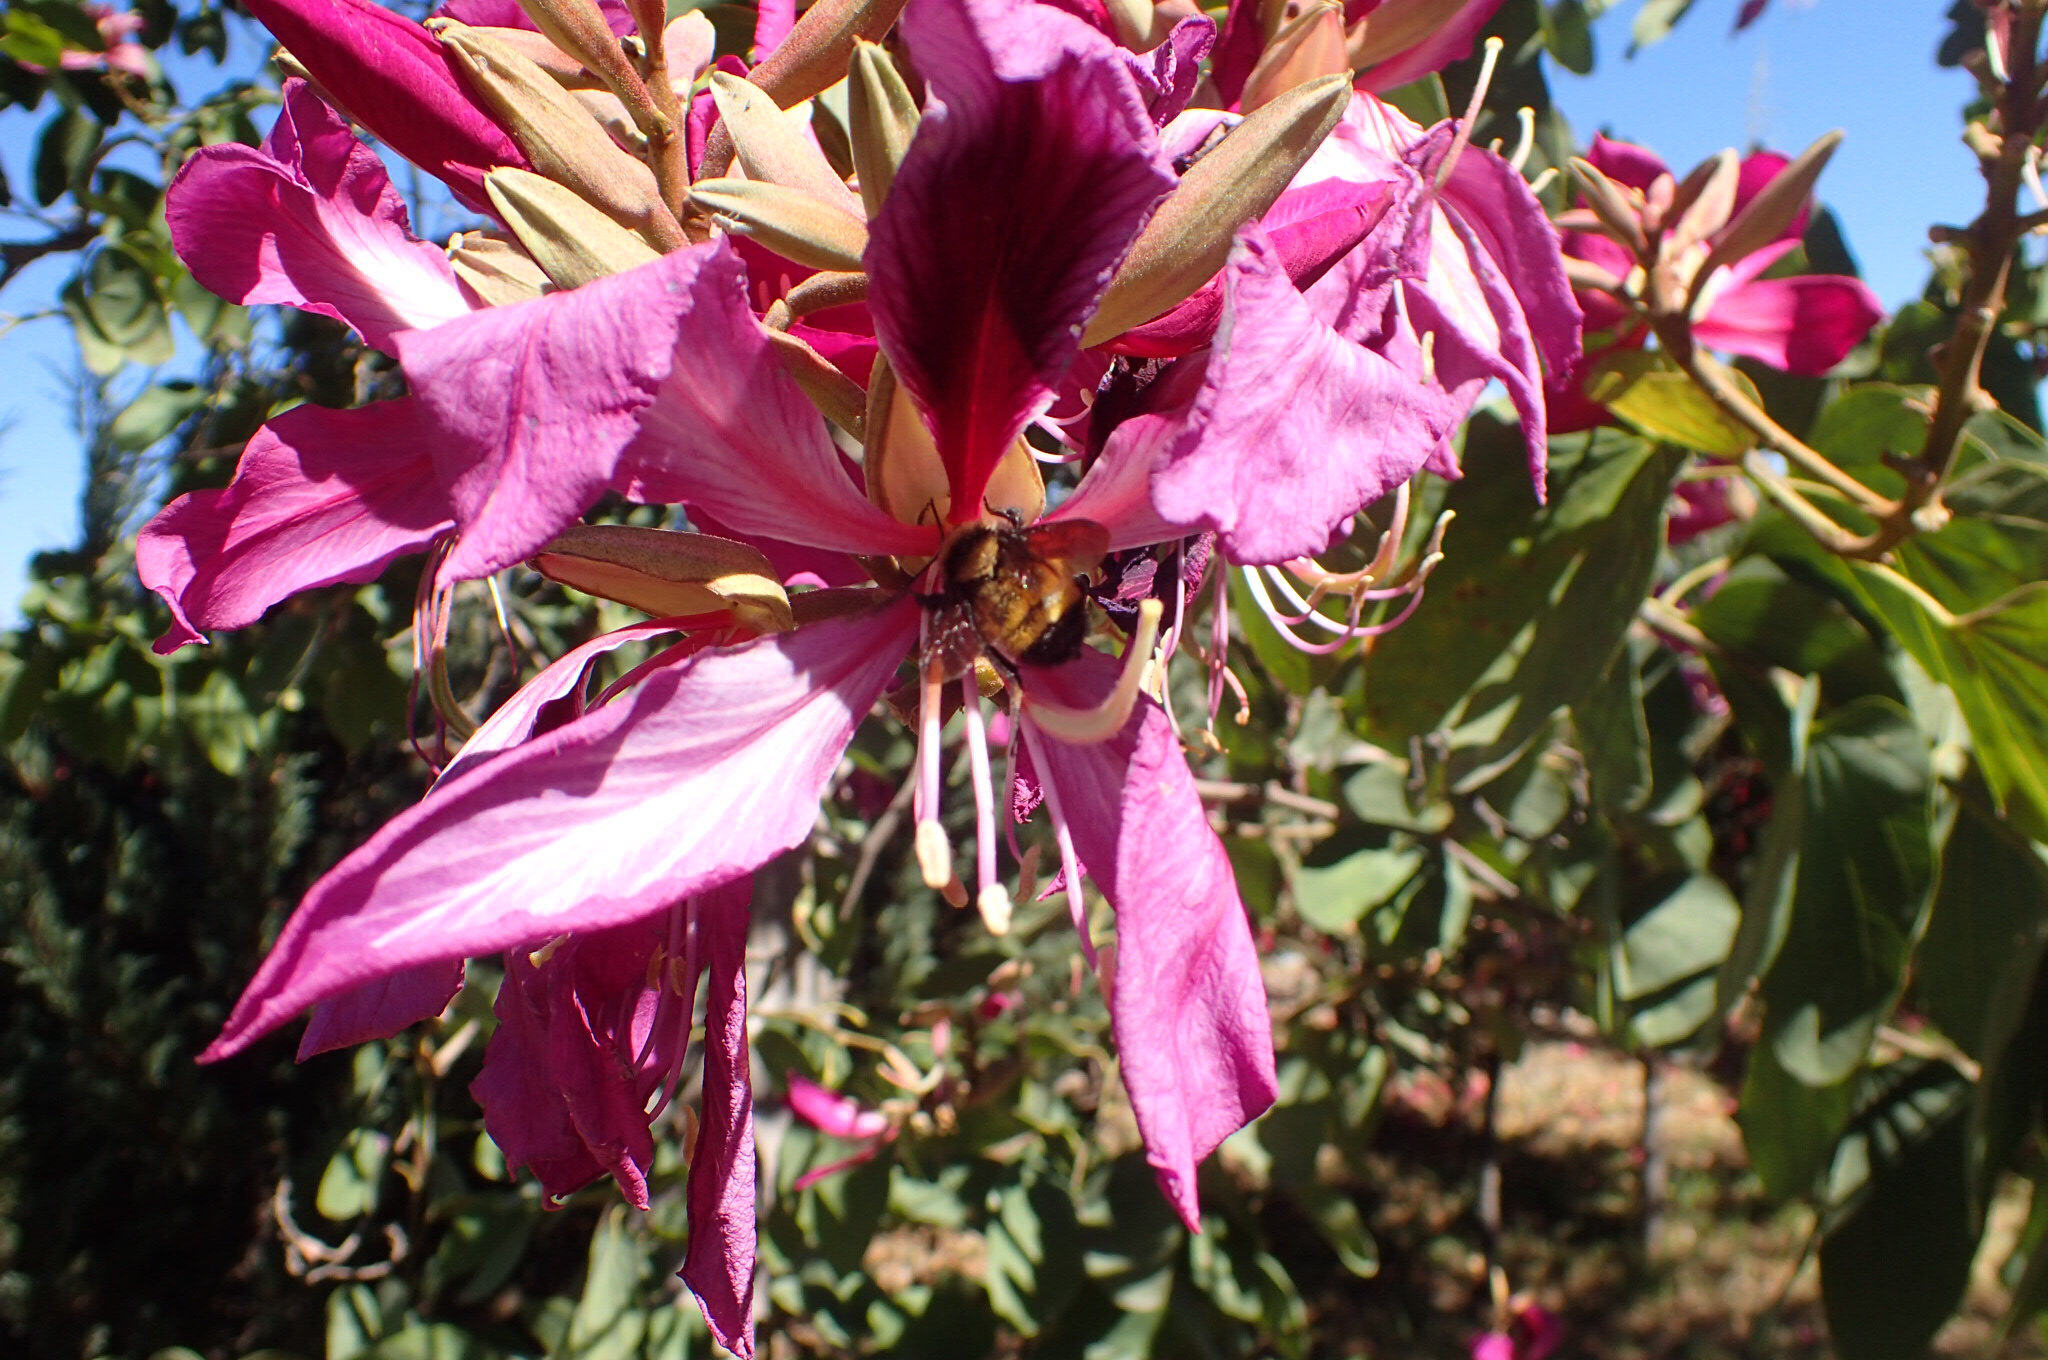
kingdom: Animalia
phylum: Arthropoda
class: Insecta
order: Hymenoptera
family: Apidae
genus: Bombus
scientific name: Bombus sonorus
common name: Sonoran bumble bee
